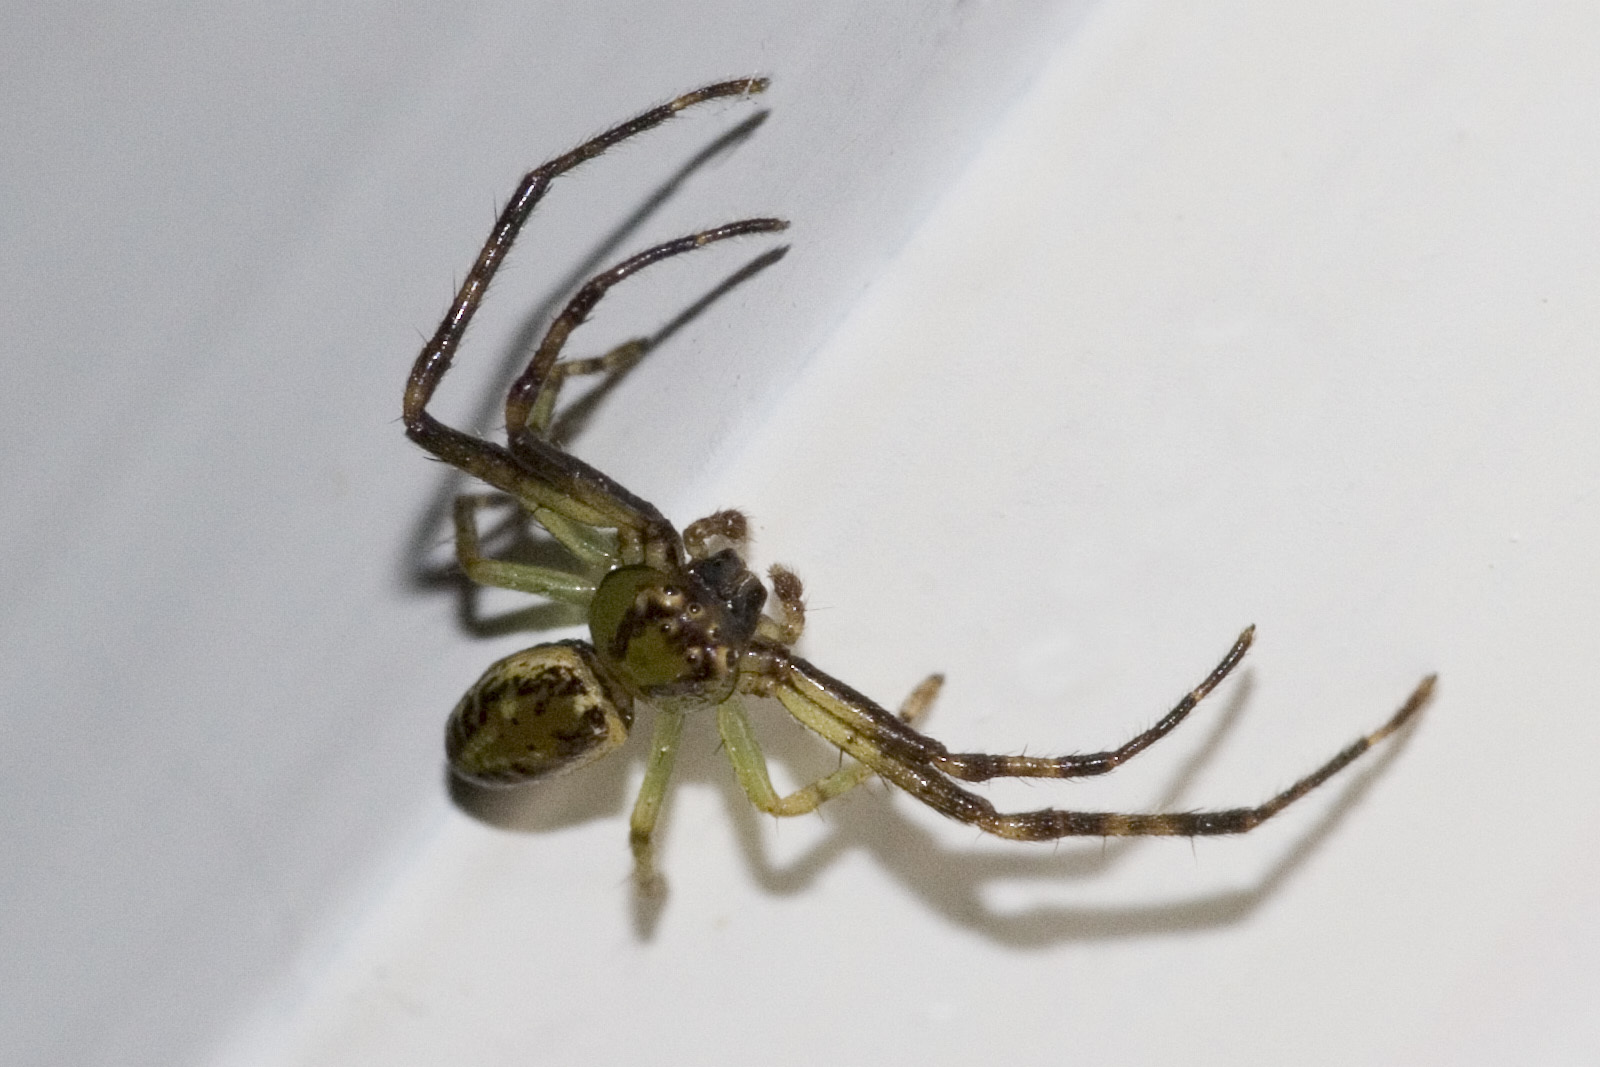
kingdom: Animalia
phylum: Arthropoda
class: Arachnida
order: Araneae
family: Thomisidae
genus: Diaea
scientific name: Diaea ambara
